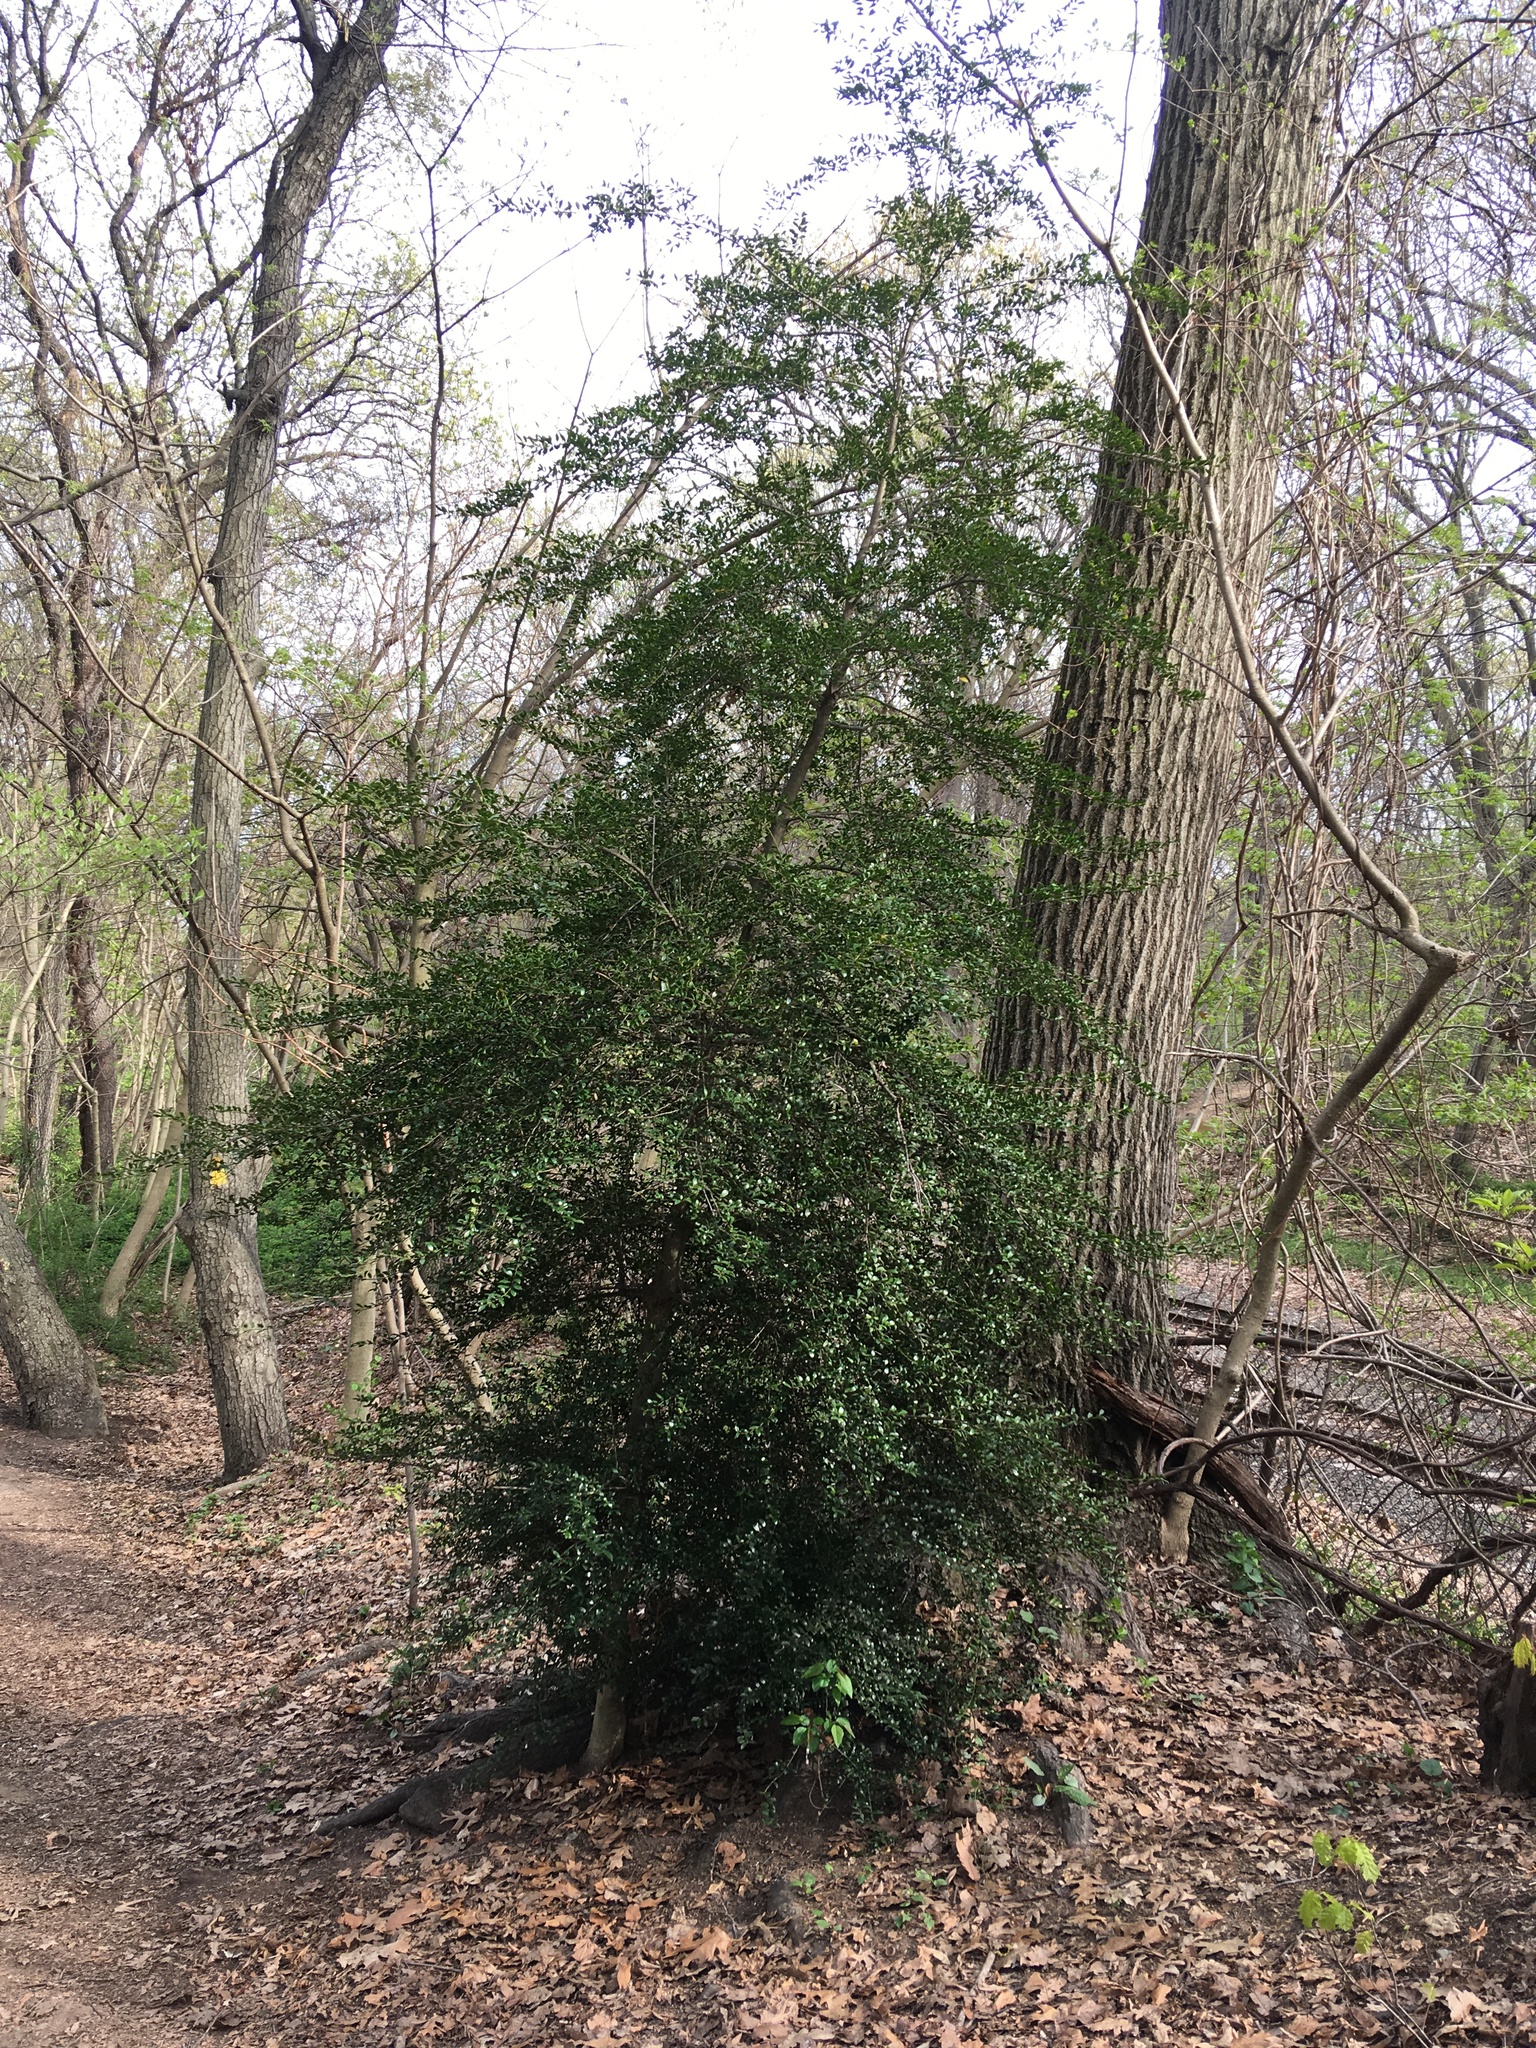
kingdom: Plantae
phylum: Tracheophyta
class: Magnoliopsida
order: Aquifoliales
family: Aquifoliaceae
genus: Ilex
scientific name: Ilex crenata
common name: Japanese holly
